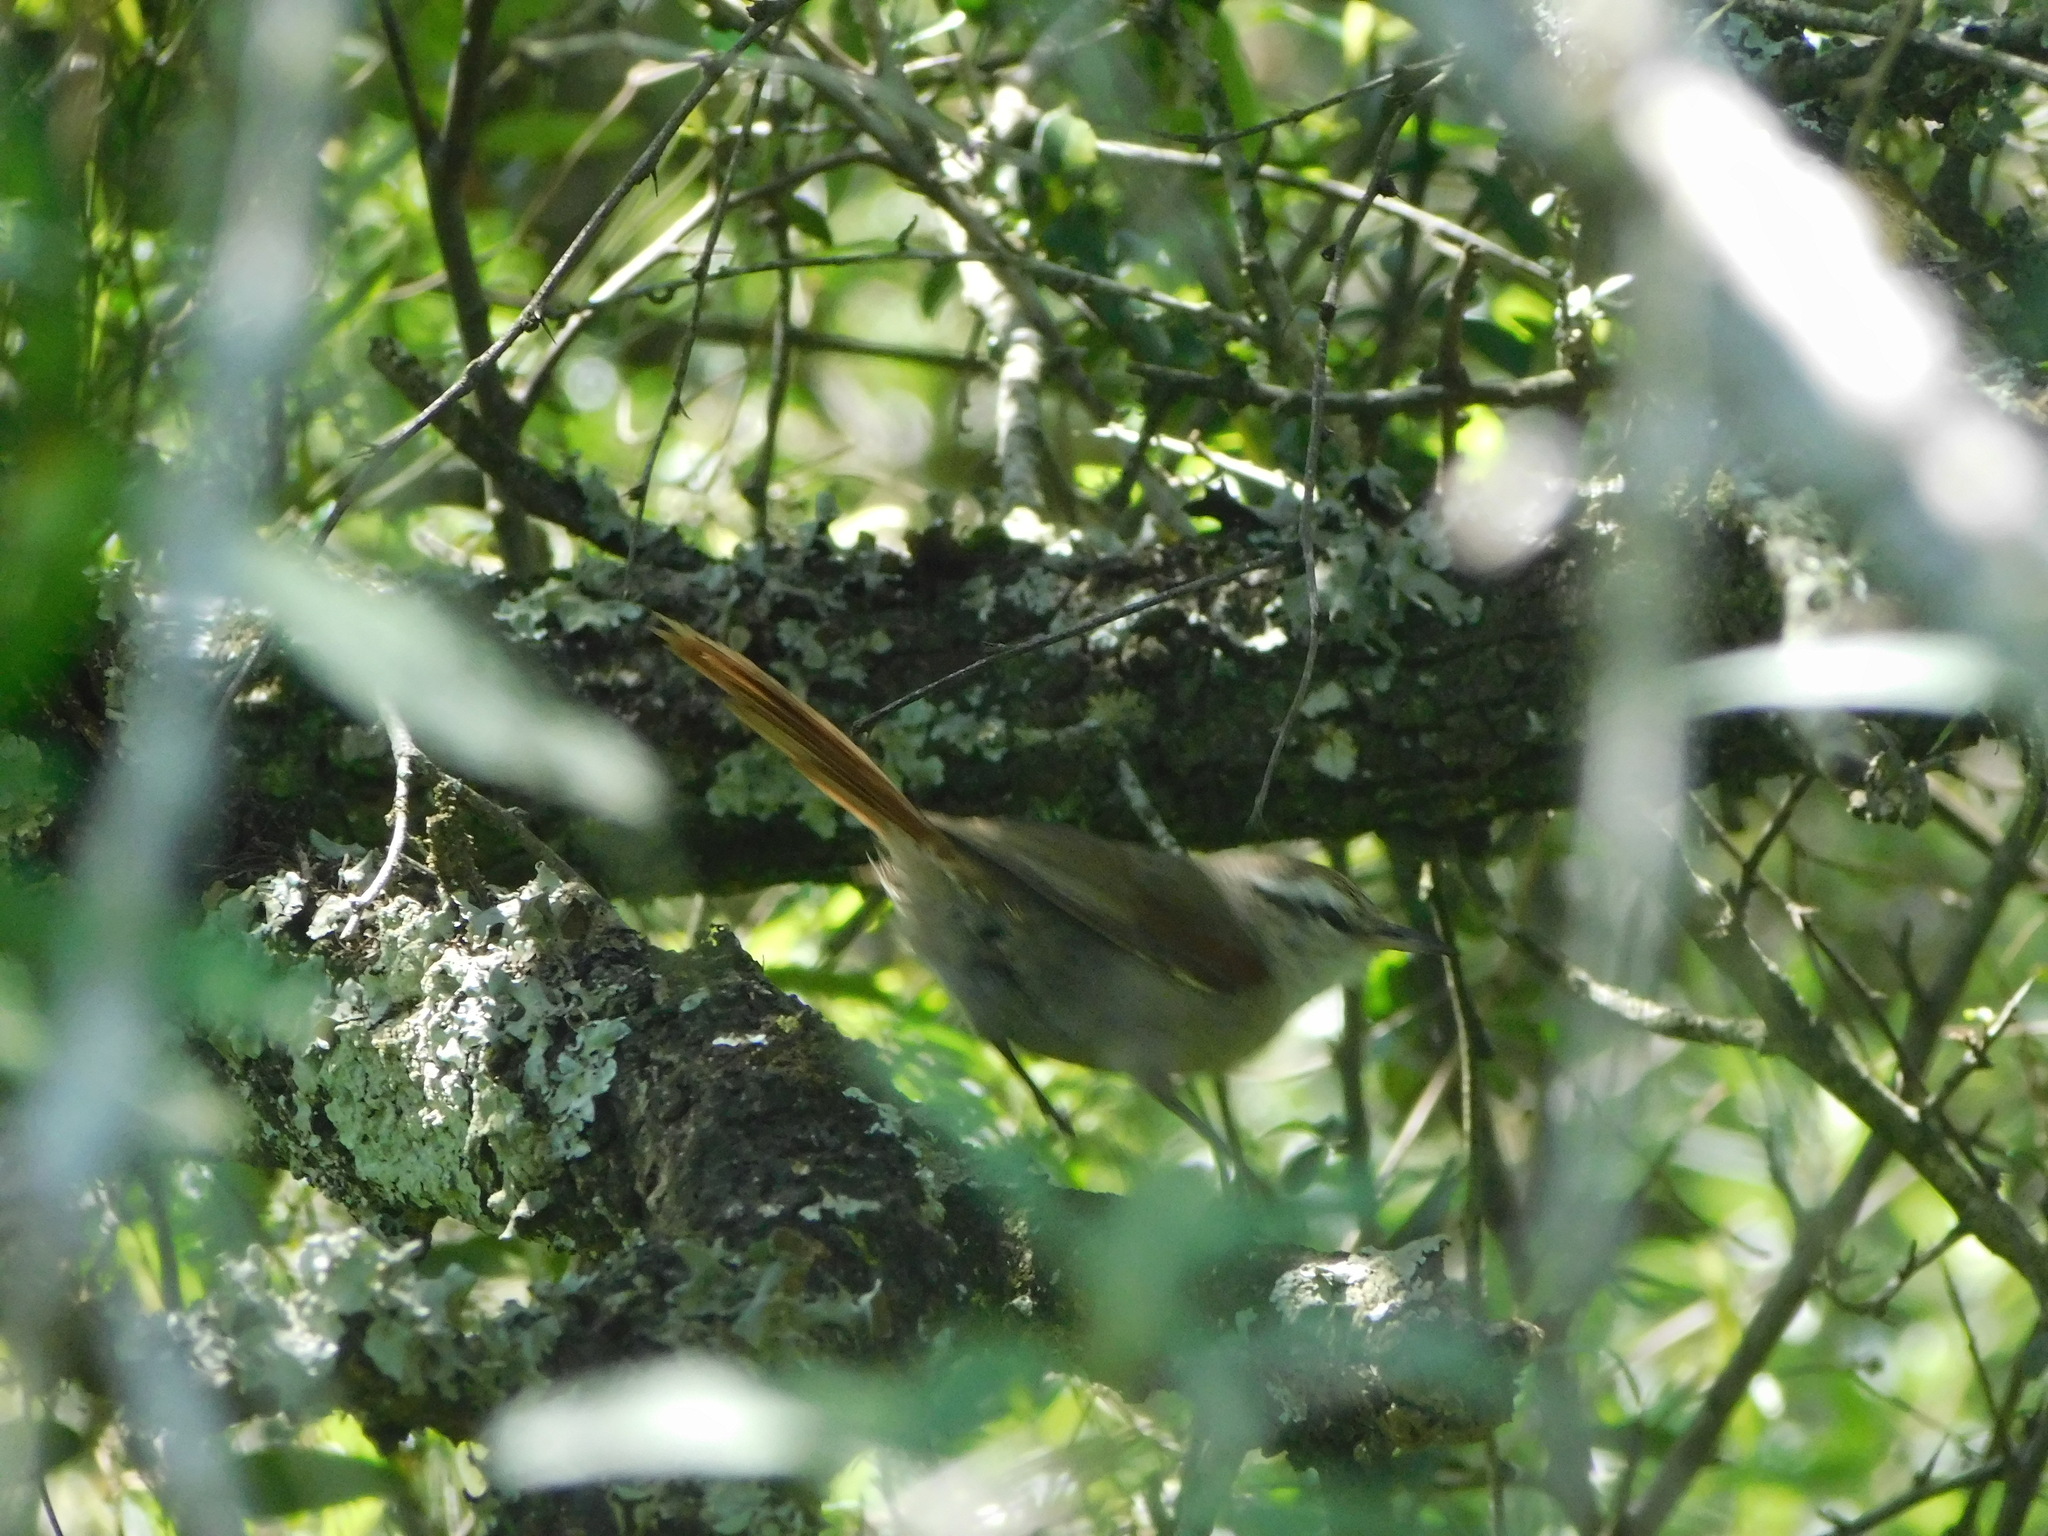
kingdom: Animalia
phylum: Chordata
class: Aves
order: Passeriformes
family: Furnariidae
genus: Cranioleuca
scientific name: Cranioleuca pyrrhophia
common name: Stripe-crowned spinetail
